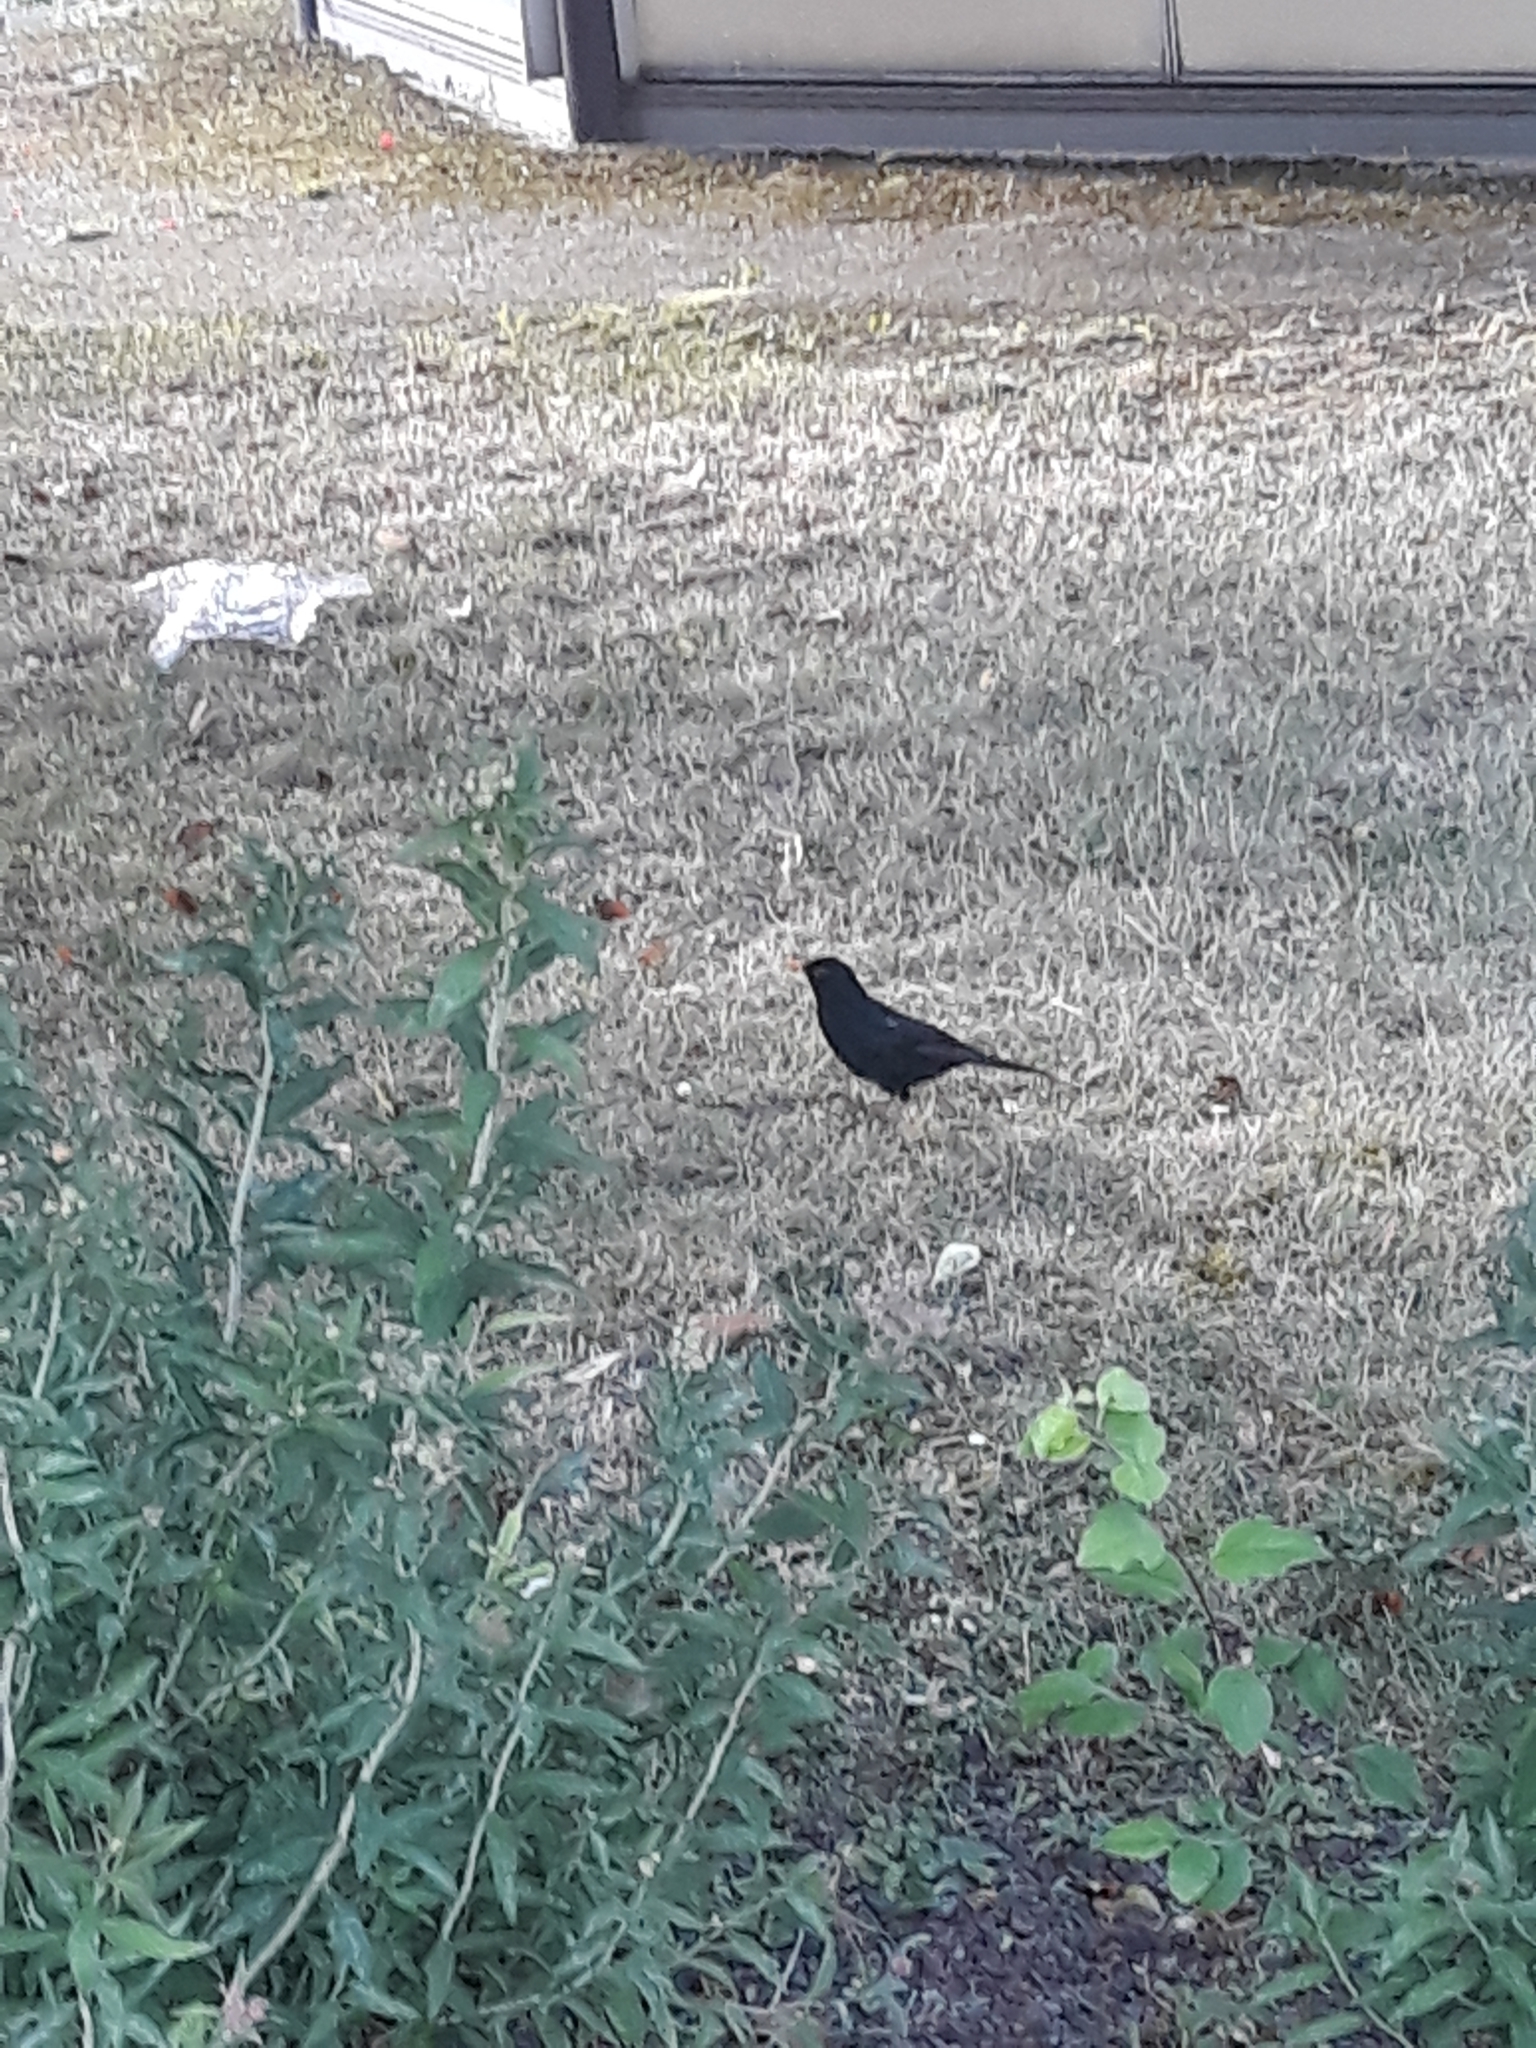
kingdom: Animalia
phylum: Chordata
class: Aves
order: Passeriformes
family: Turdidae
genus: Turdus
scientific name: Turdus merula
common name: Common blackbird
